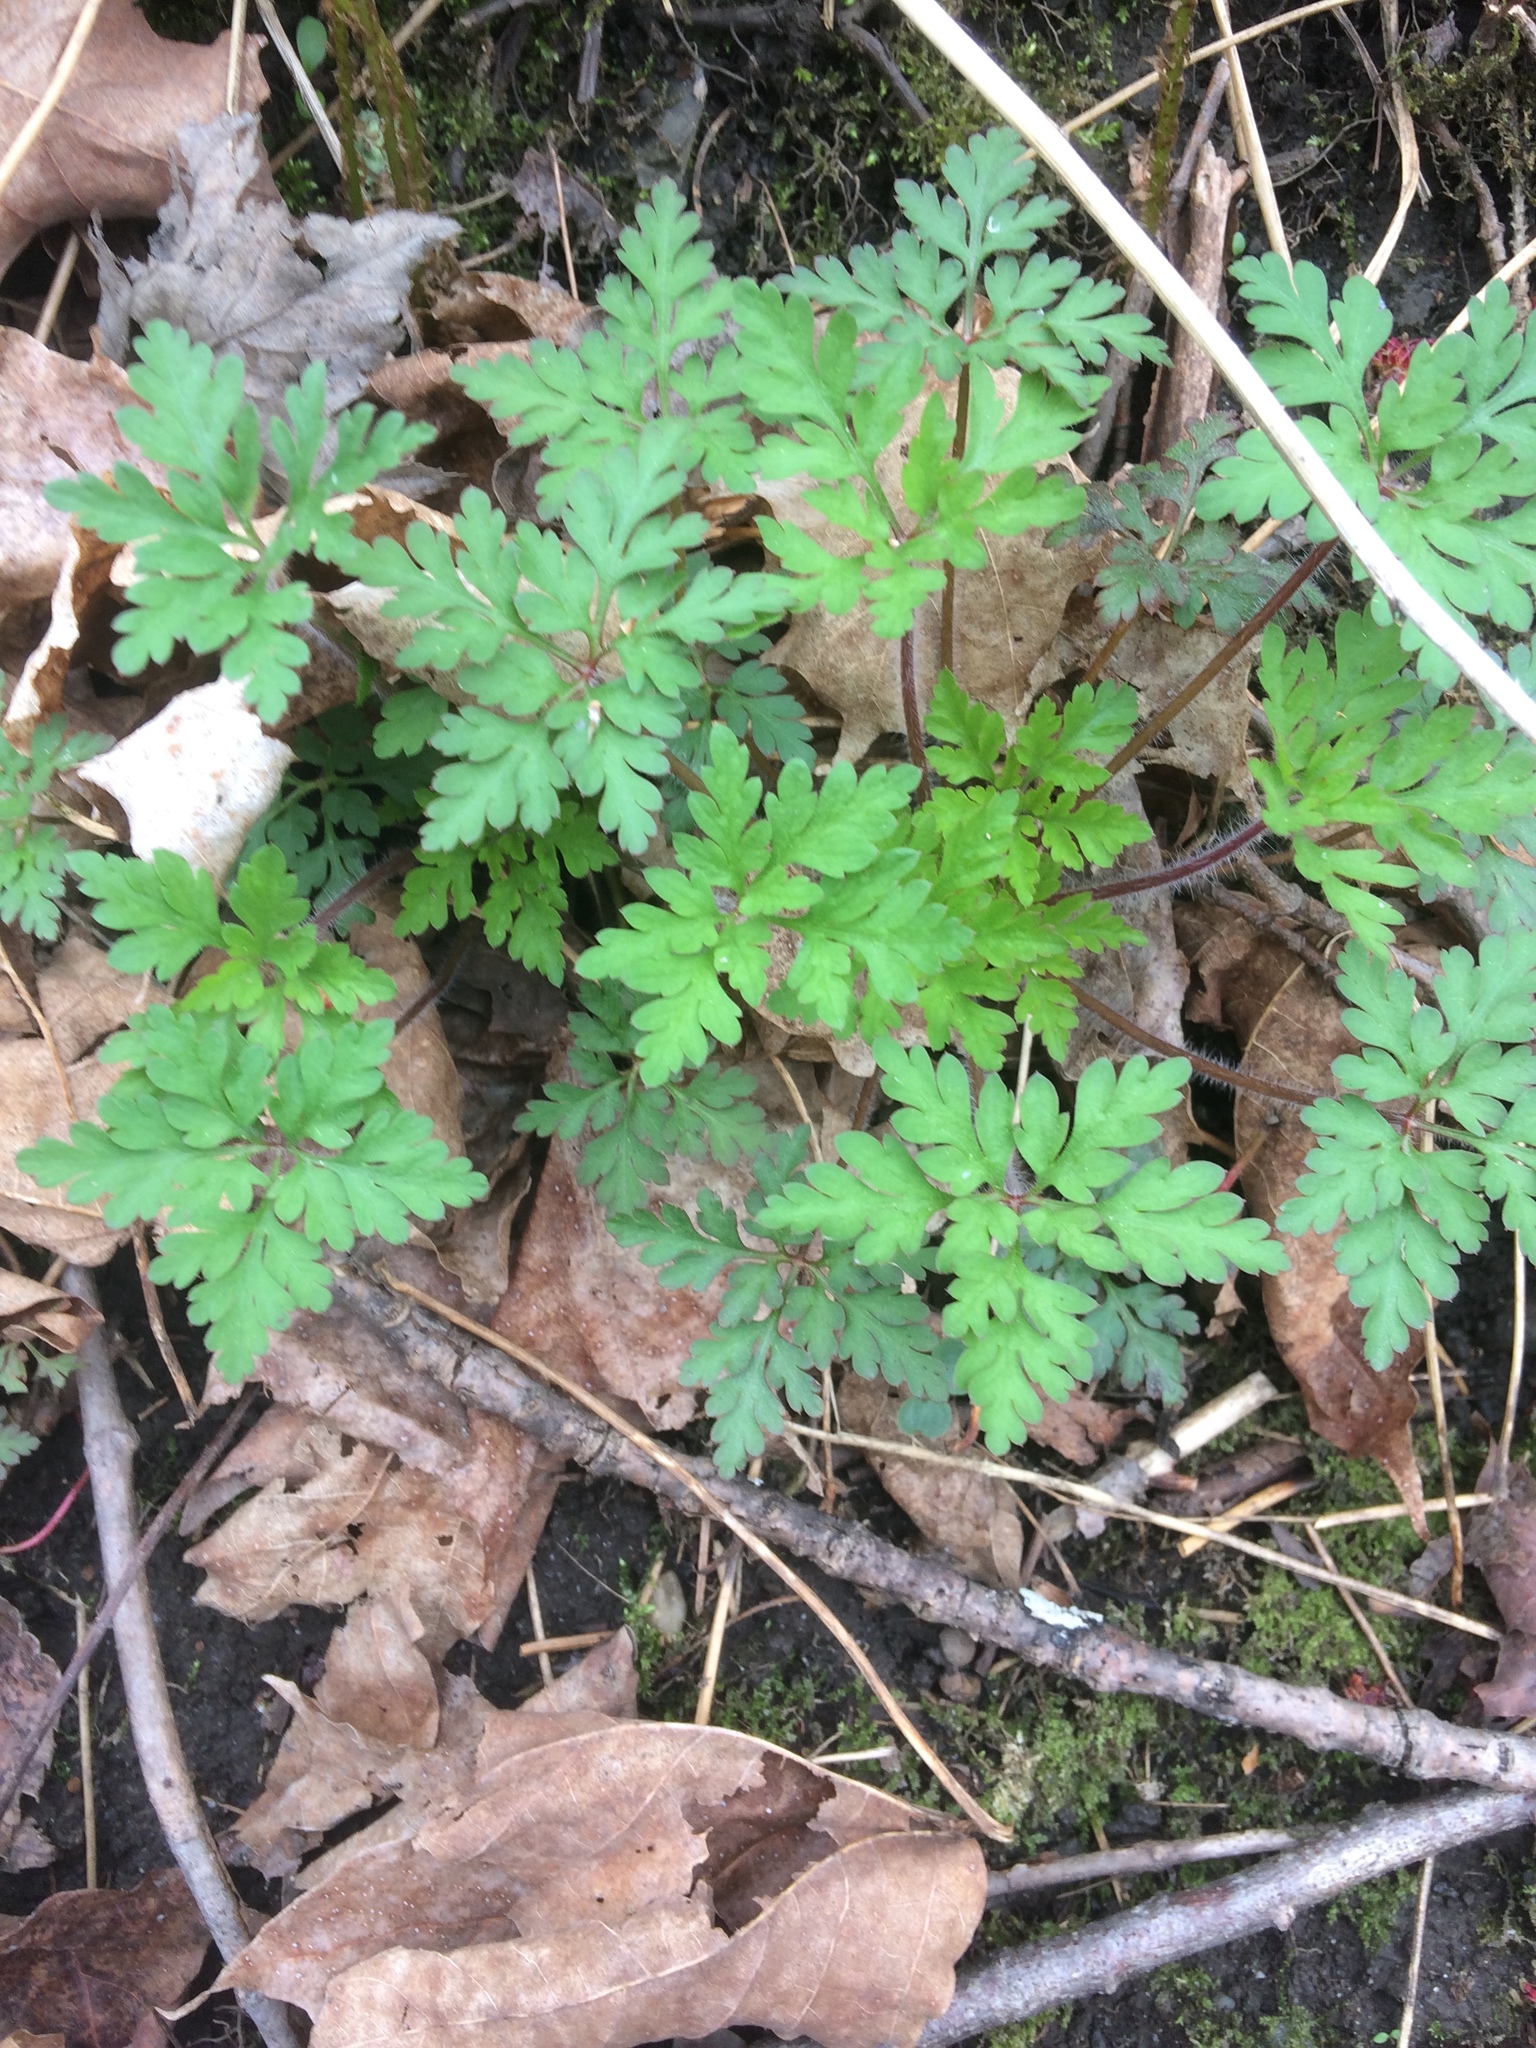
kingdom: Plantae
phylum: Tracheophyta
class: Magnoliopsida
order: Geraniales
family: Geraniaceae
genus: Geranium
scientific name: Geranium robertianum
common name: Herb-robert
